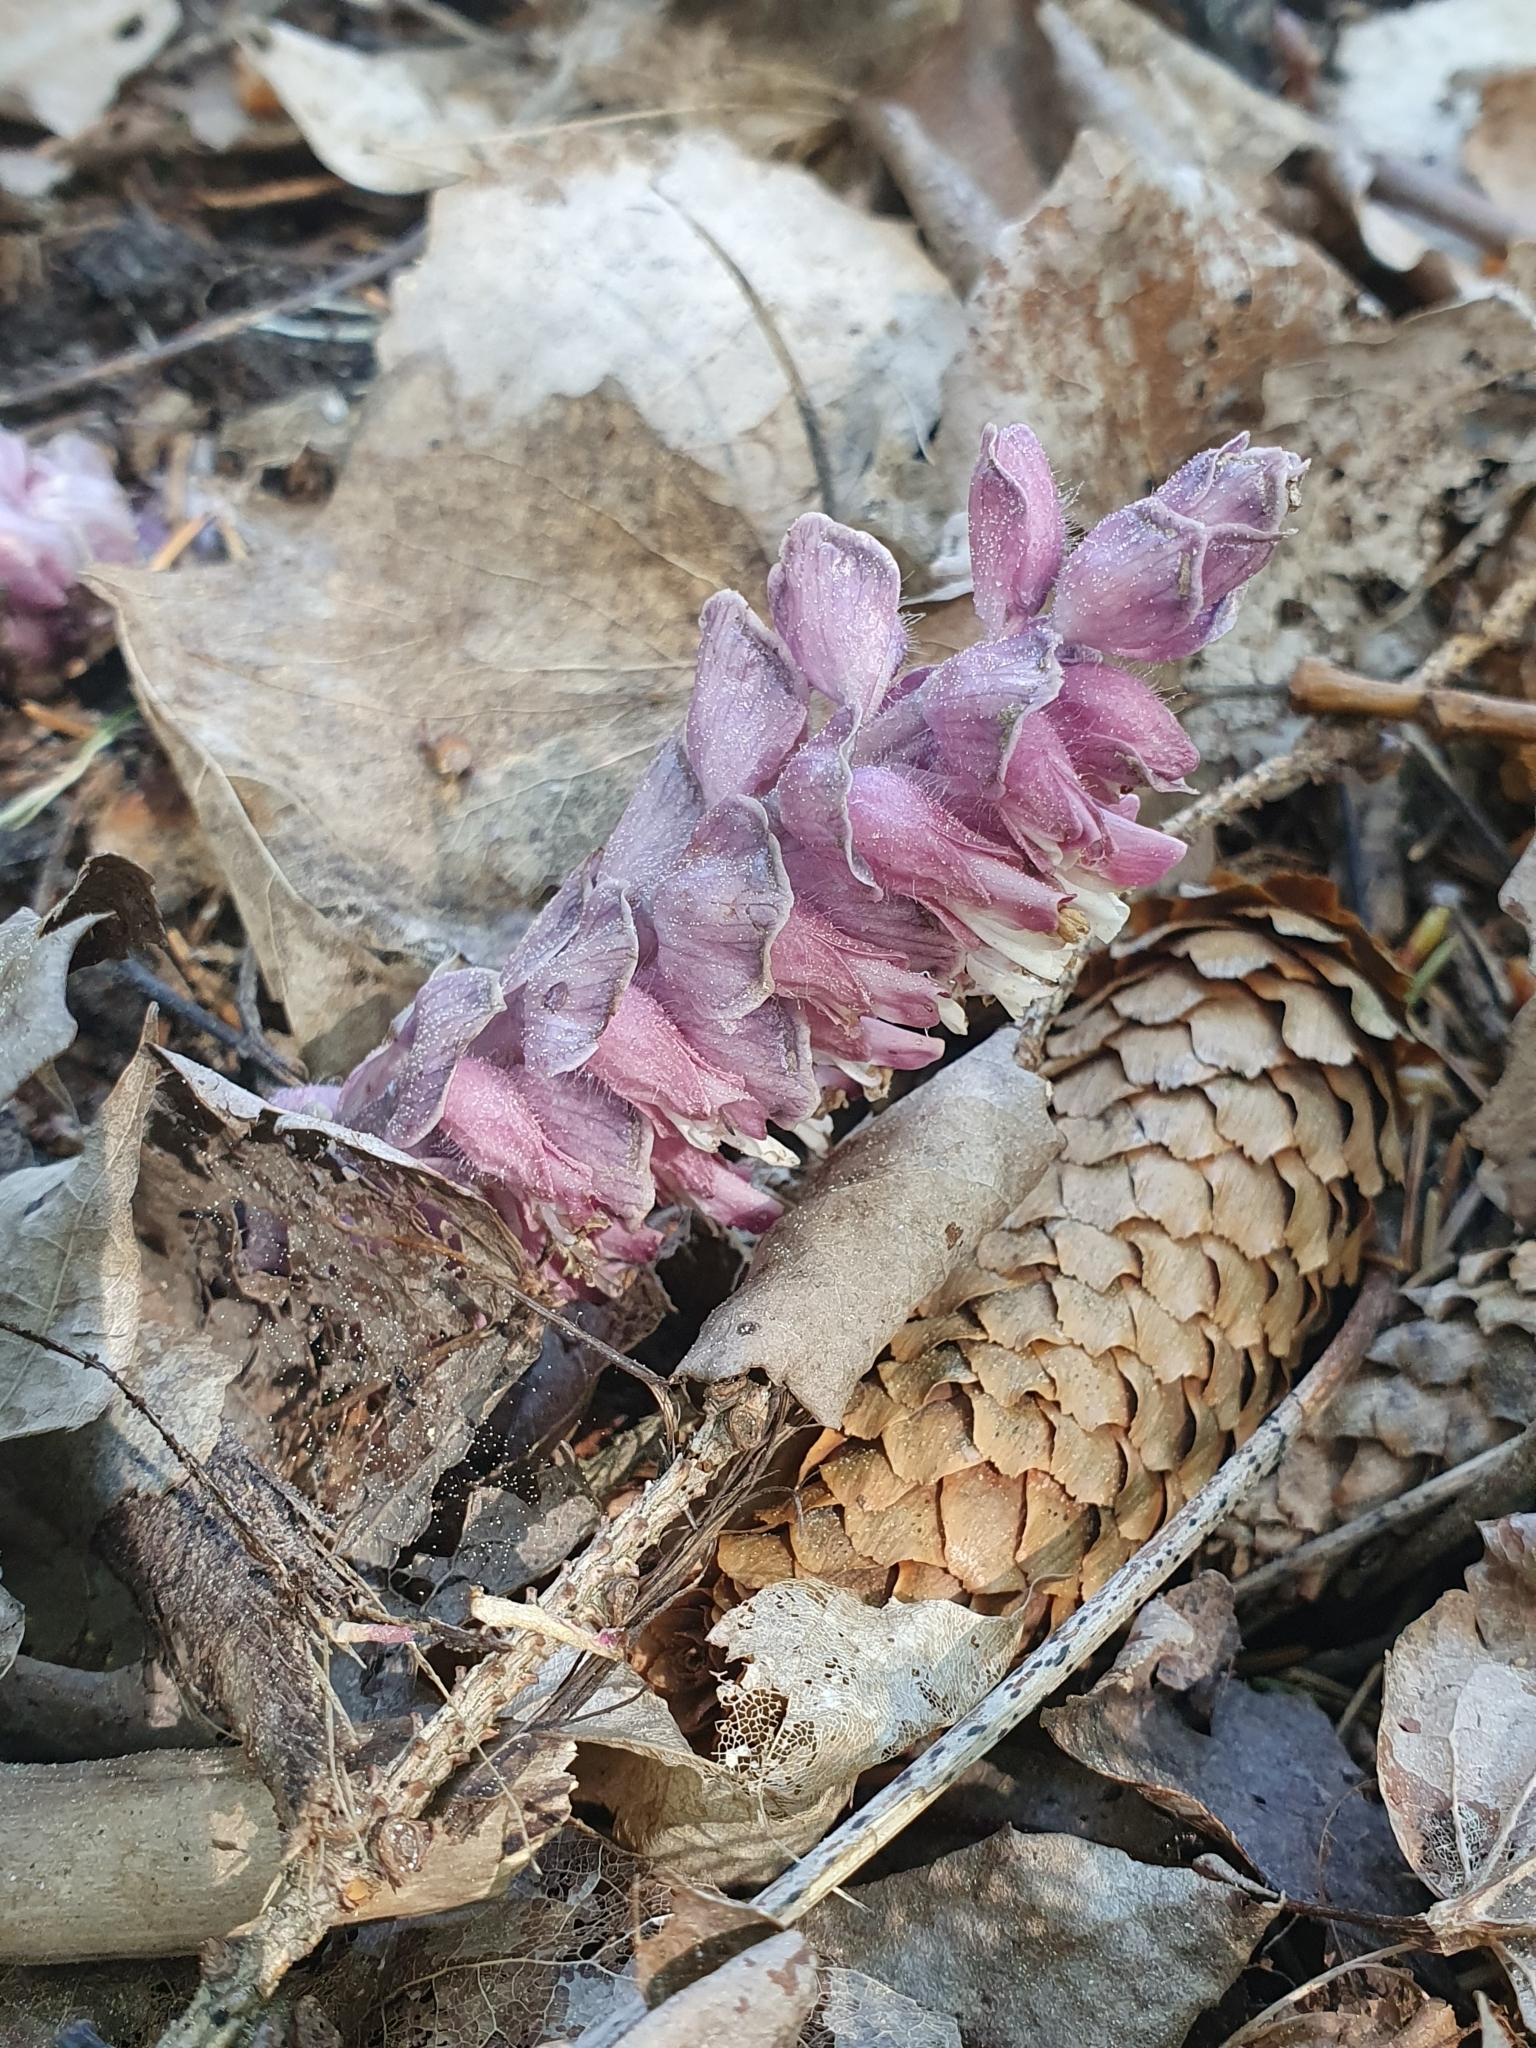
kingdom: Plantae
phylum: Tracheophyta
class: Magnoliopsida
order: Lamiales
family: Orobanchaceae
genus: Lathraea
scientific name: Lathraea squamaria
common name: Toothwort
